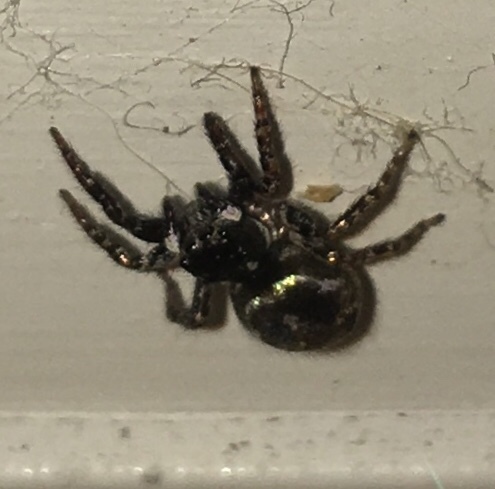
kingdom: Animalia
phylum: Arthropoda
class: Arachnida
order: Araneae
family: Salticidae
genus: Anasaitis
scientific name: Anasaitis canosa
